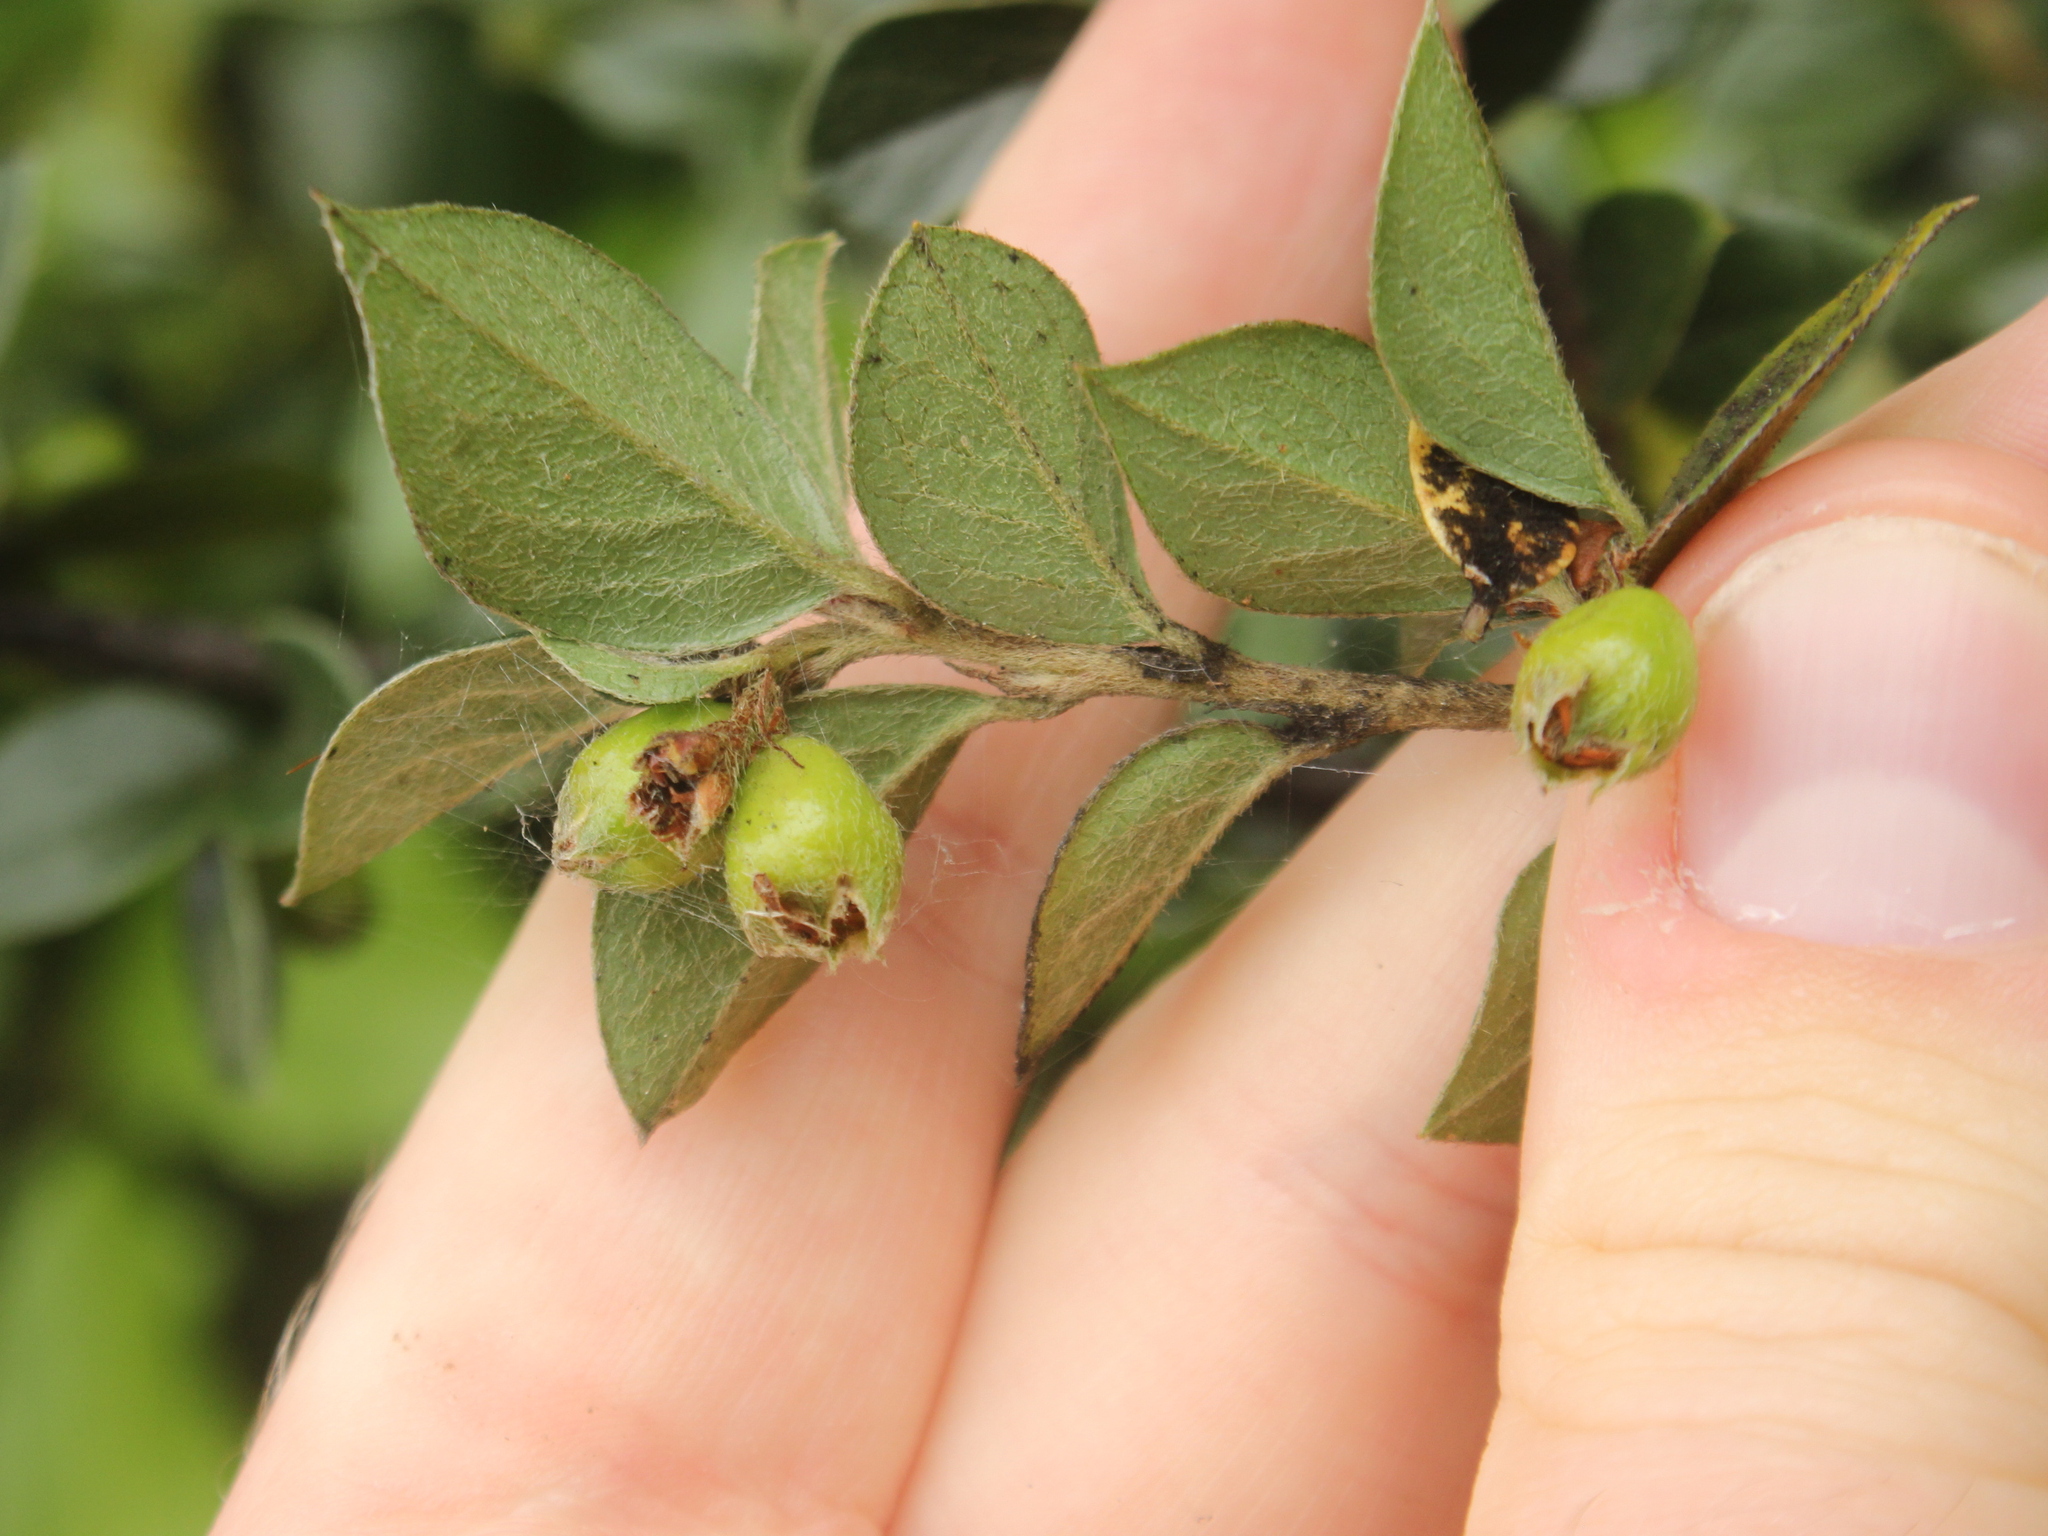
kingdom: Plantae
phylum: Tracheophyta
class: Magnoliopsida
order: Rosales
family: Rosaceae
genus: Cotoneaster
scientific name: Cotoneaster simonsii
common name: Himalayan cotoneaster
